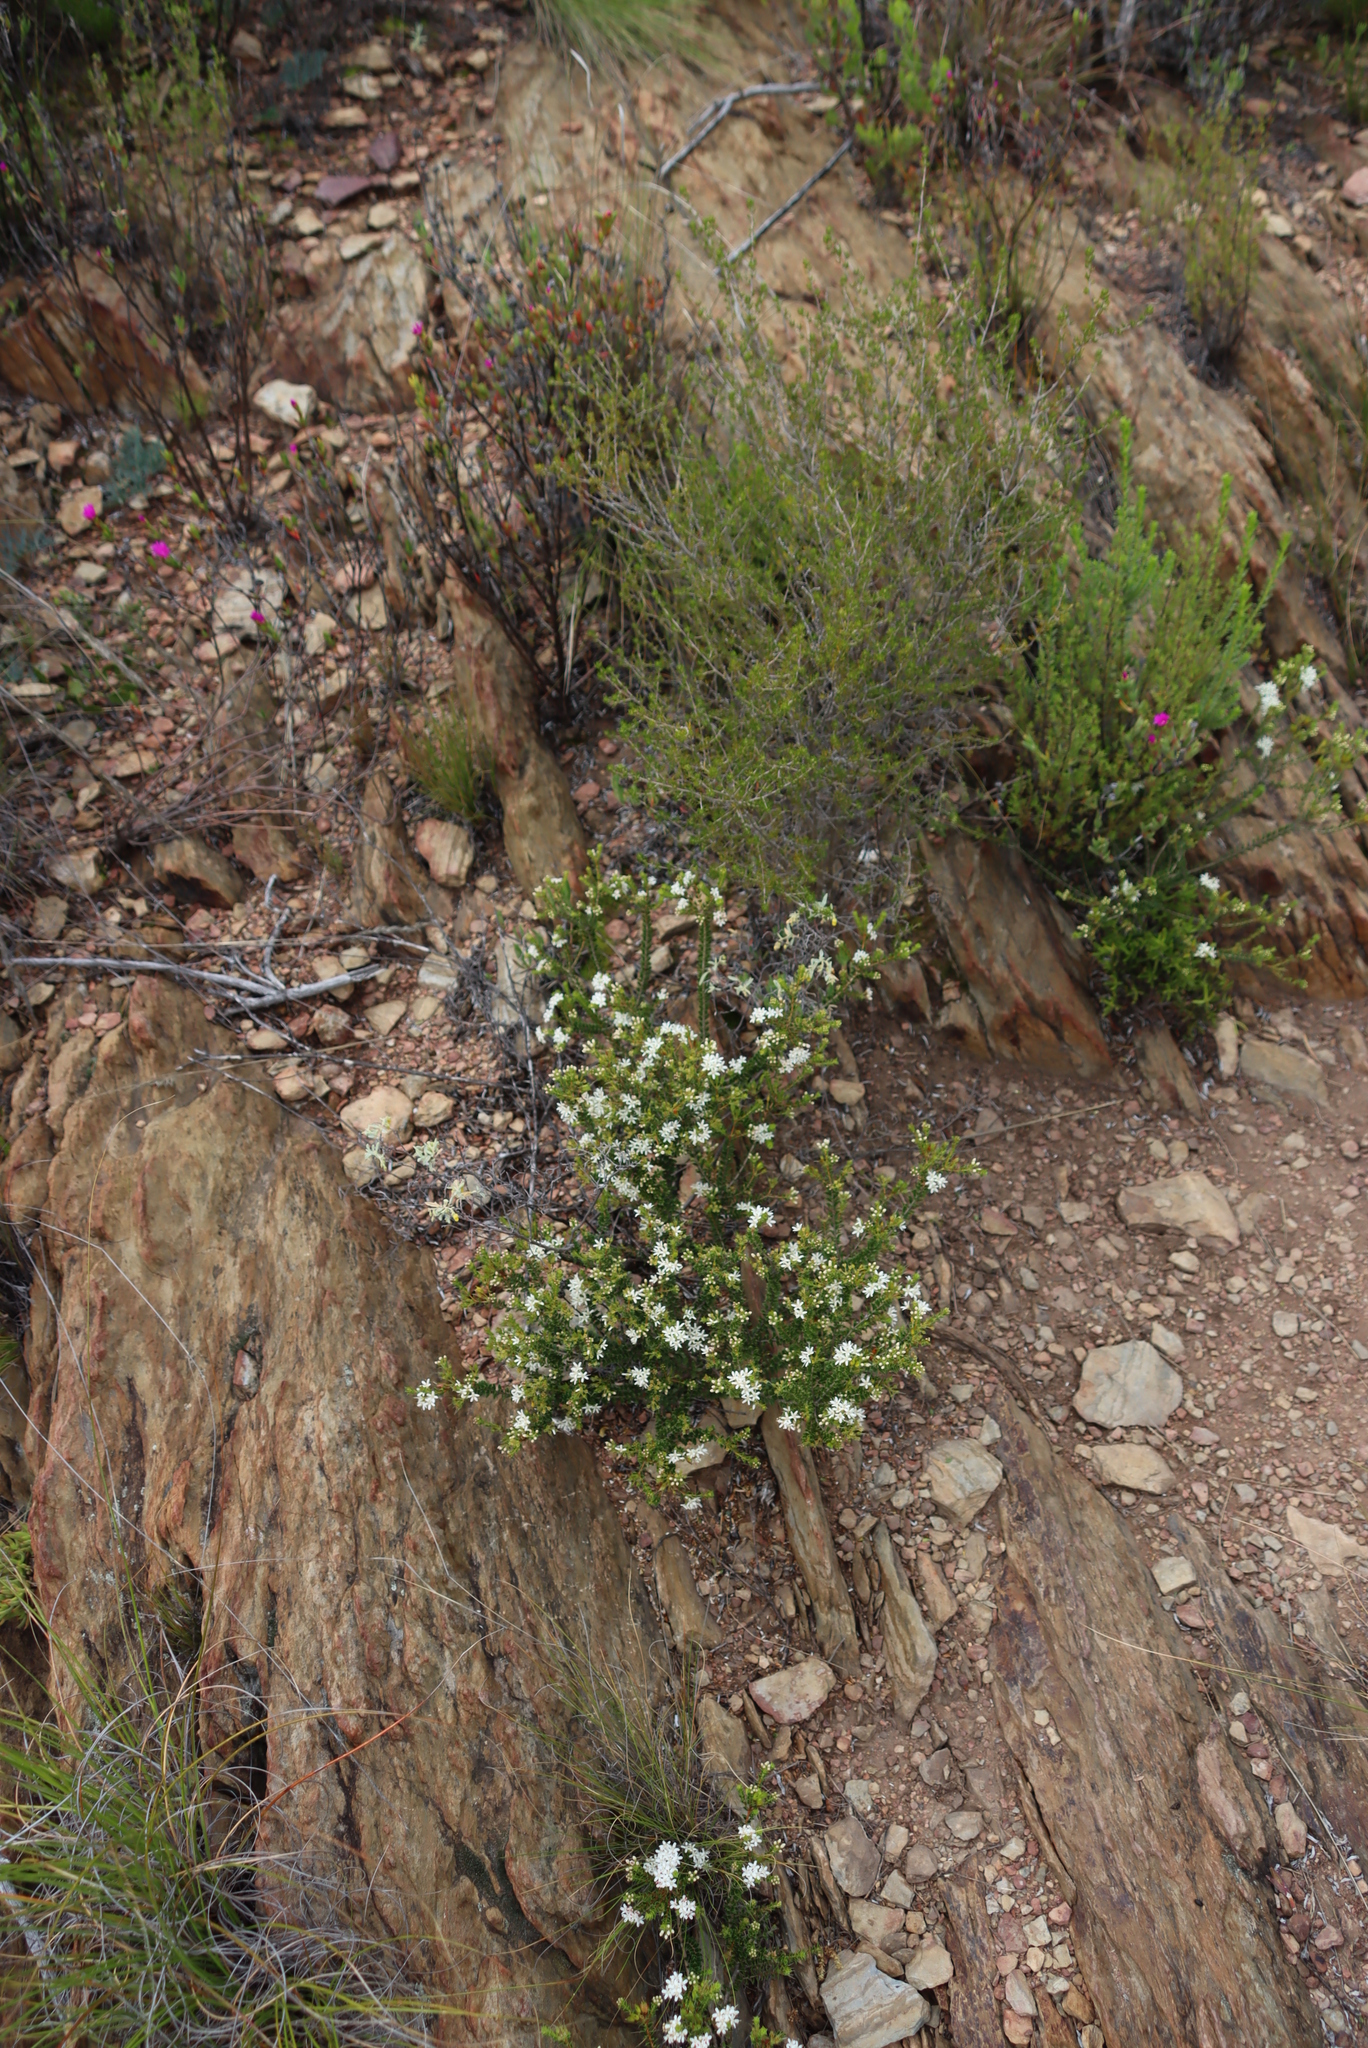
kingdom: Plantae
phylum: Tracheophyta
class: Magnoliopsida
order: Sapindales
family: Rutaceae
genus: Agathosma
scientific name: Agathosma recurvifolia
